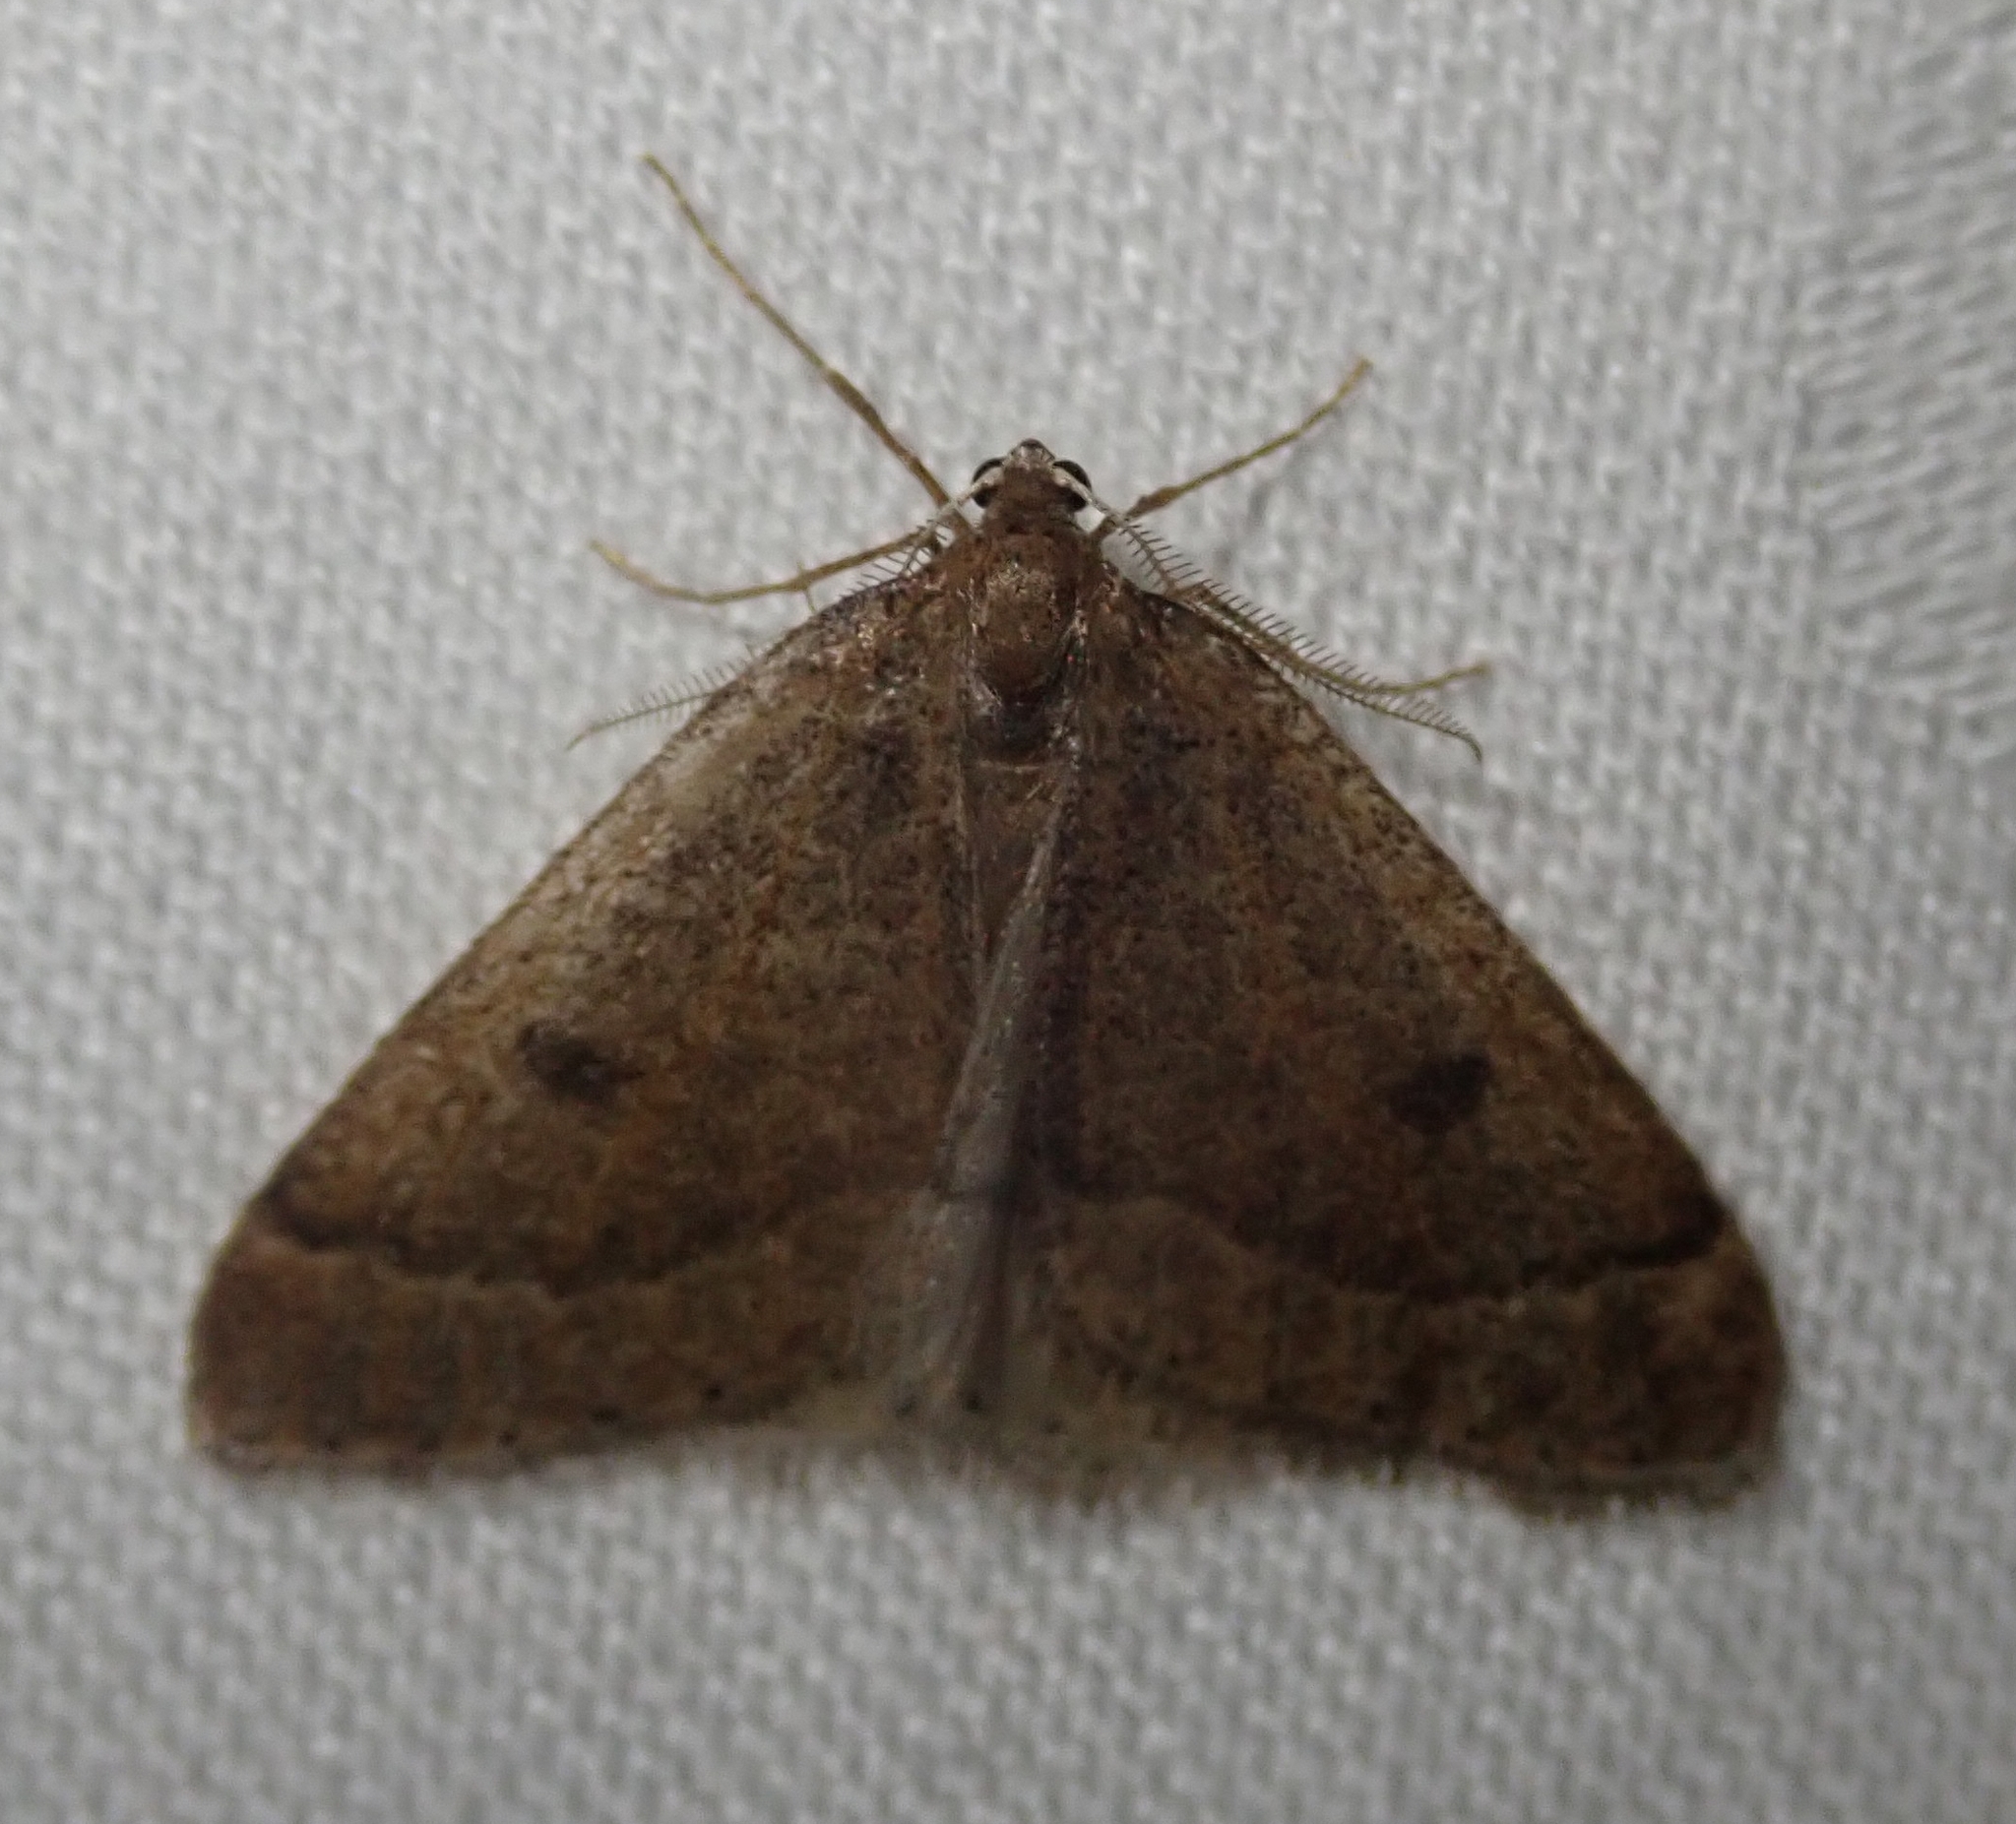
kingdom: Animalia
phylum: Arthropoda
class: Insecta
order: Lepidoptera
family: Geometridae
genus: Theria
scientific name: Theria primaria
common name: Early moth
